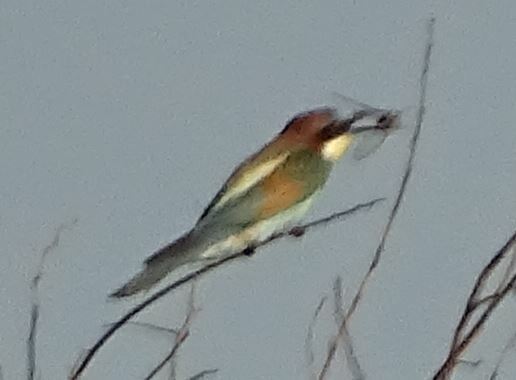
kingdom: Animalia
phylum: Chordata
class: Aves
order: Coraciiformes
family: Meropidae
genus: Merops
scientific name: Merops apiaster
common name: European bee-eater
